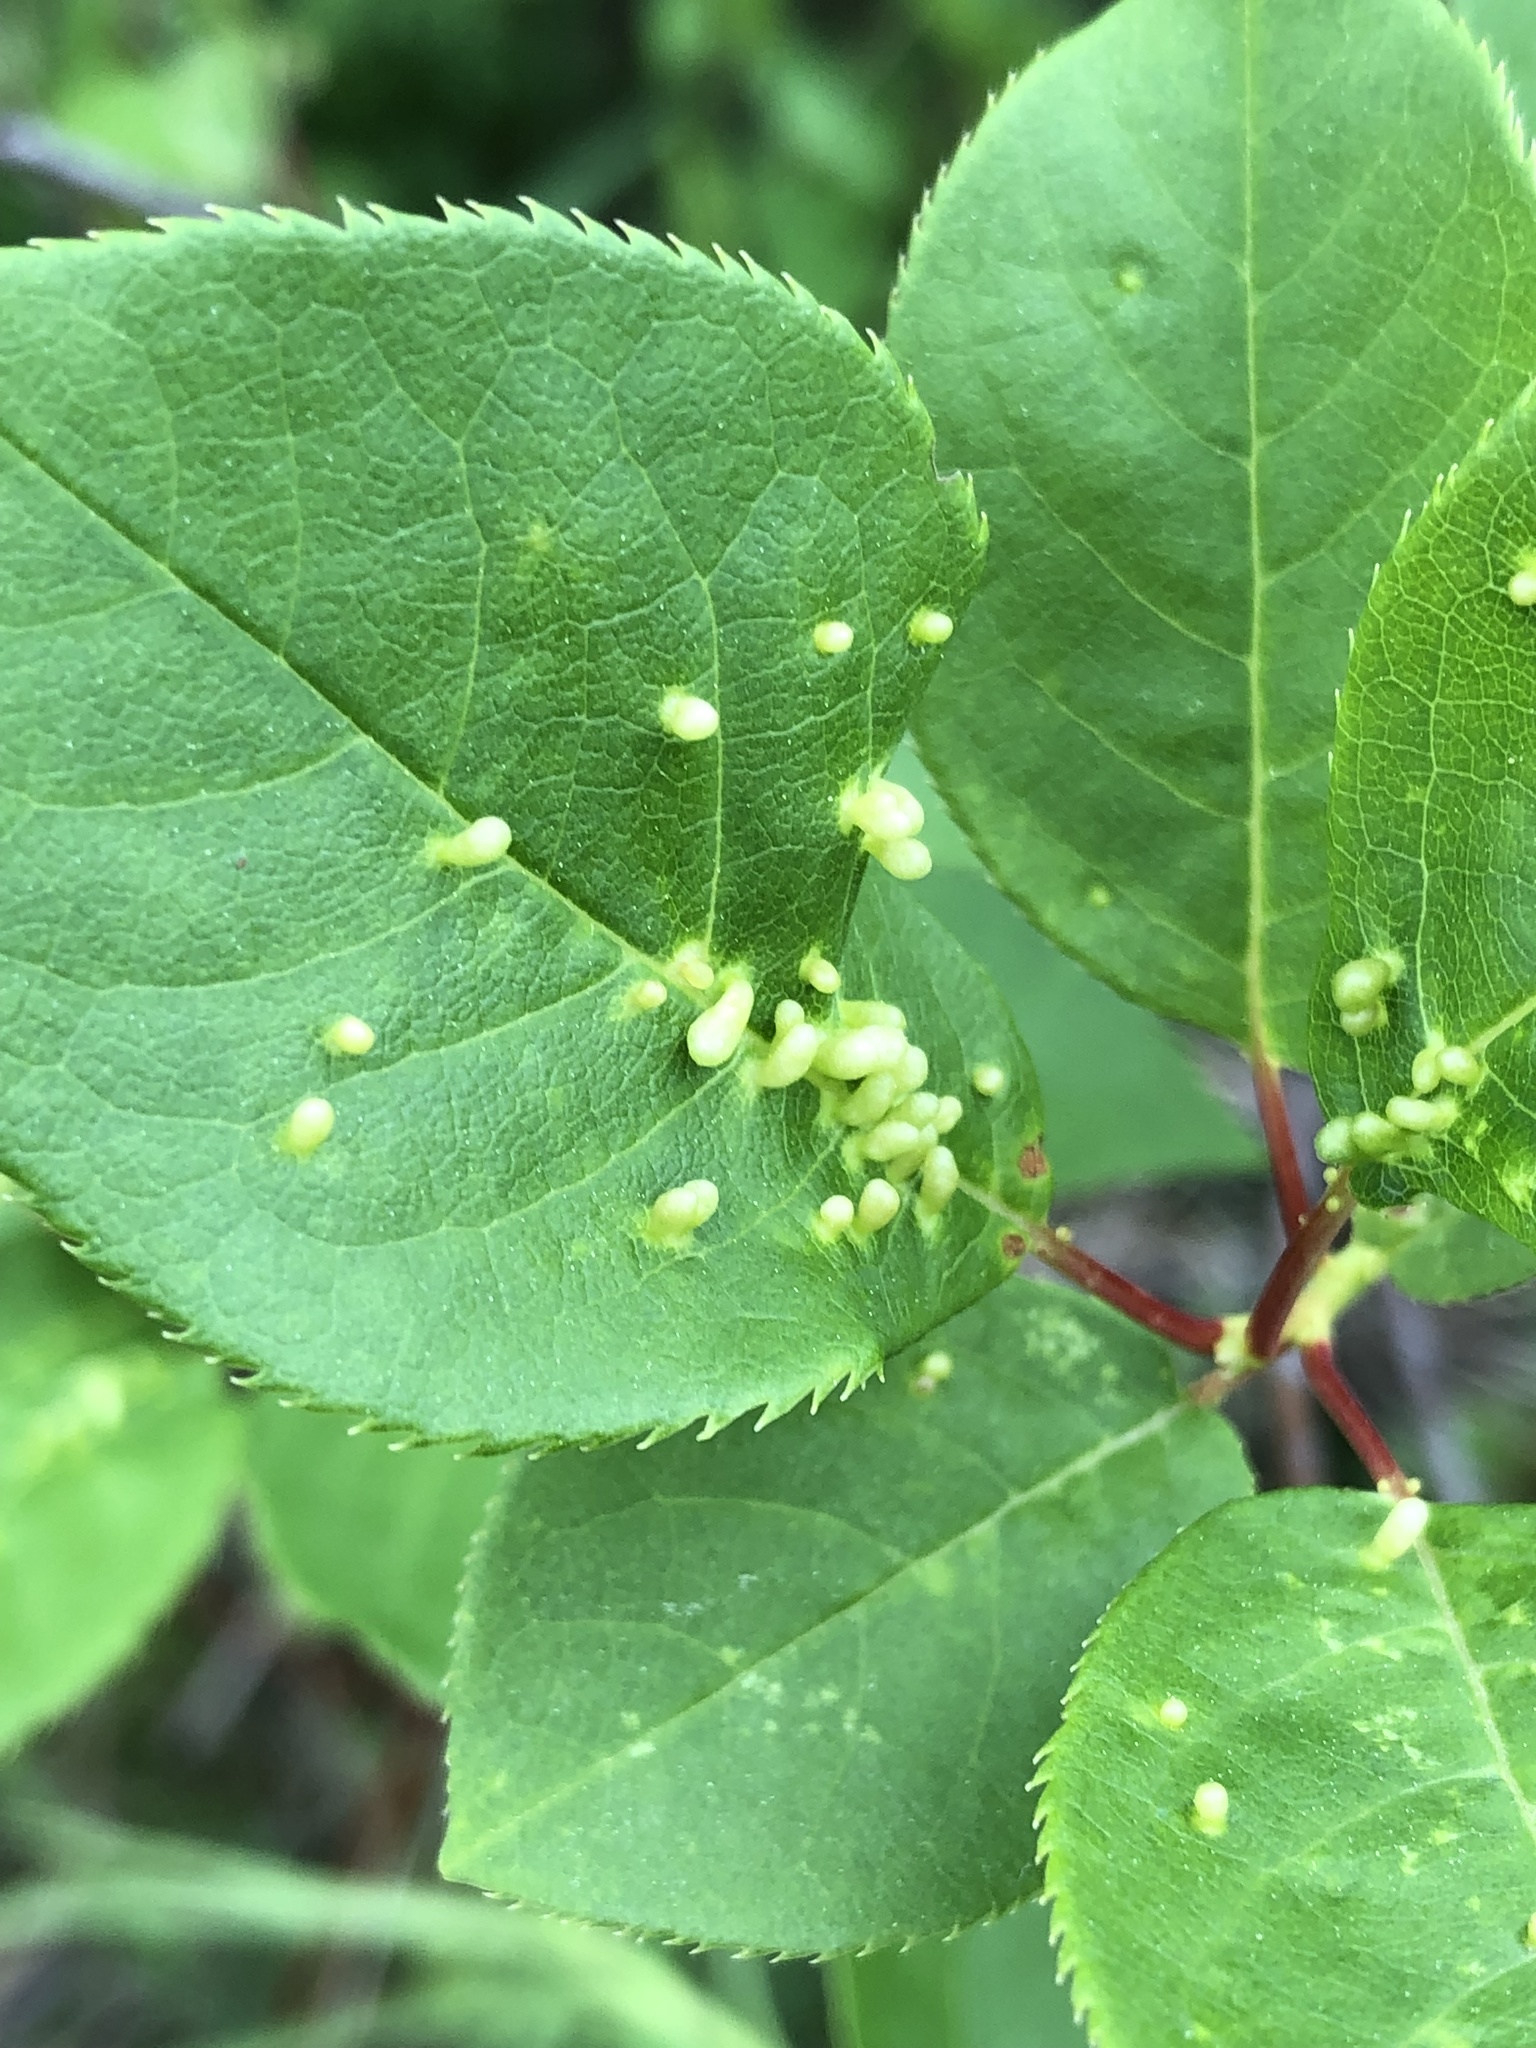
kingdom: Animalia
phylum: Arthropoda
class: Arachnida
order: Trombidiformes
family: Eriophyidae
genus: Eriophyes
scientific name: Eriophyes emarginatae
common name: Plum leaf gall mite
